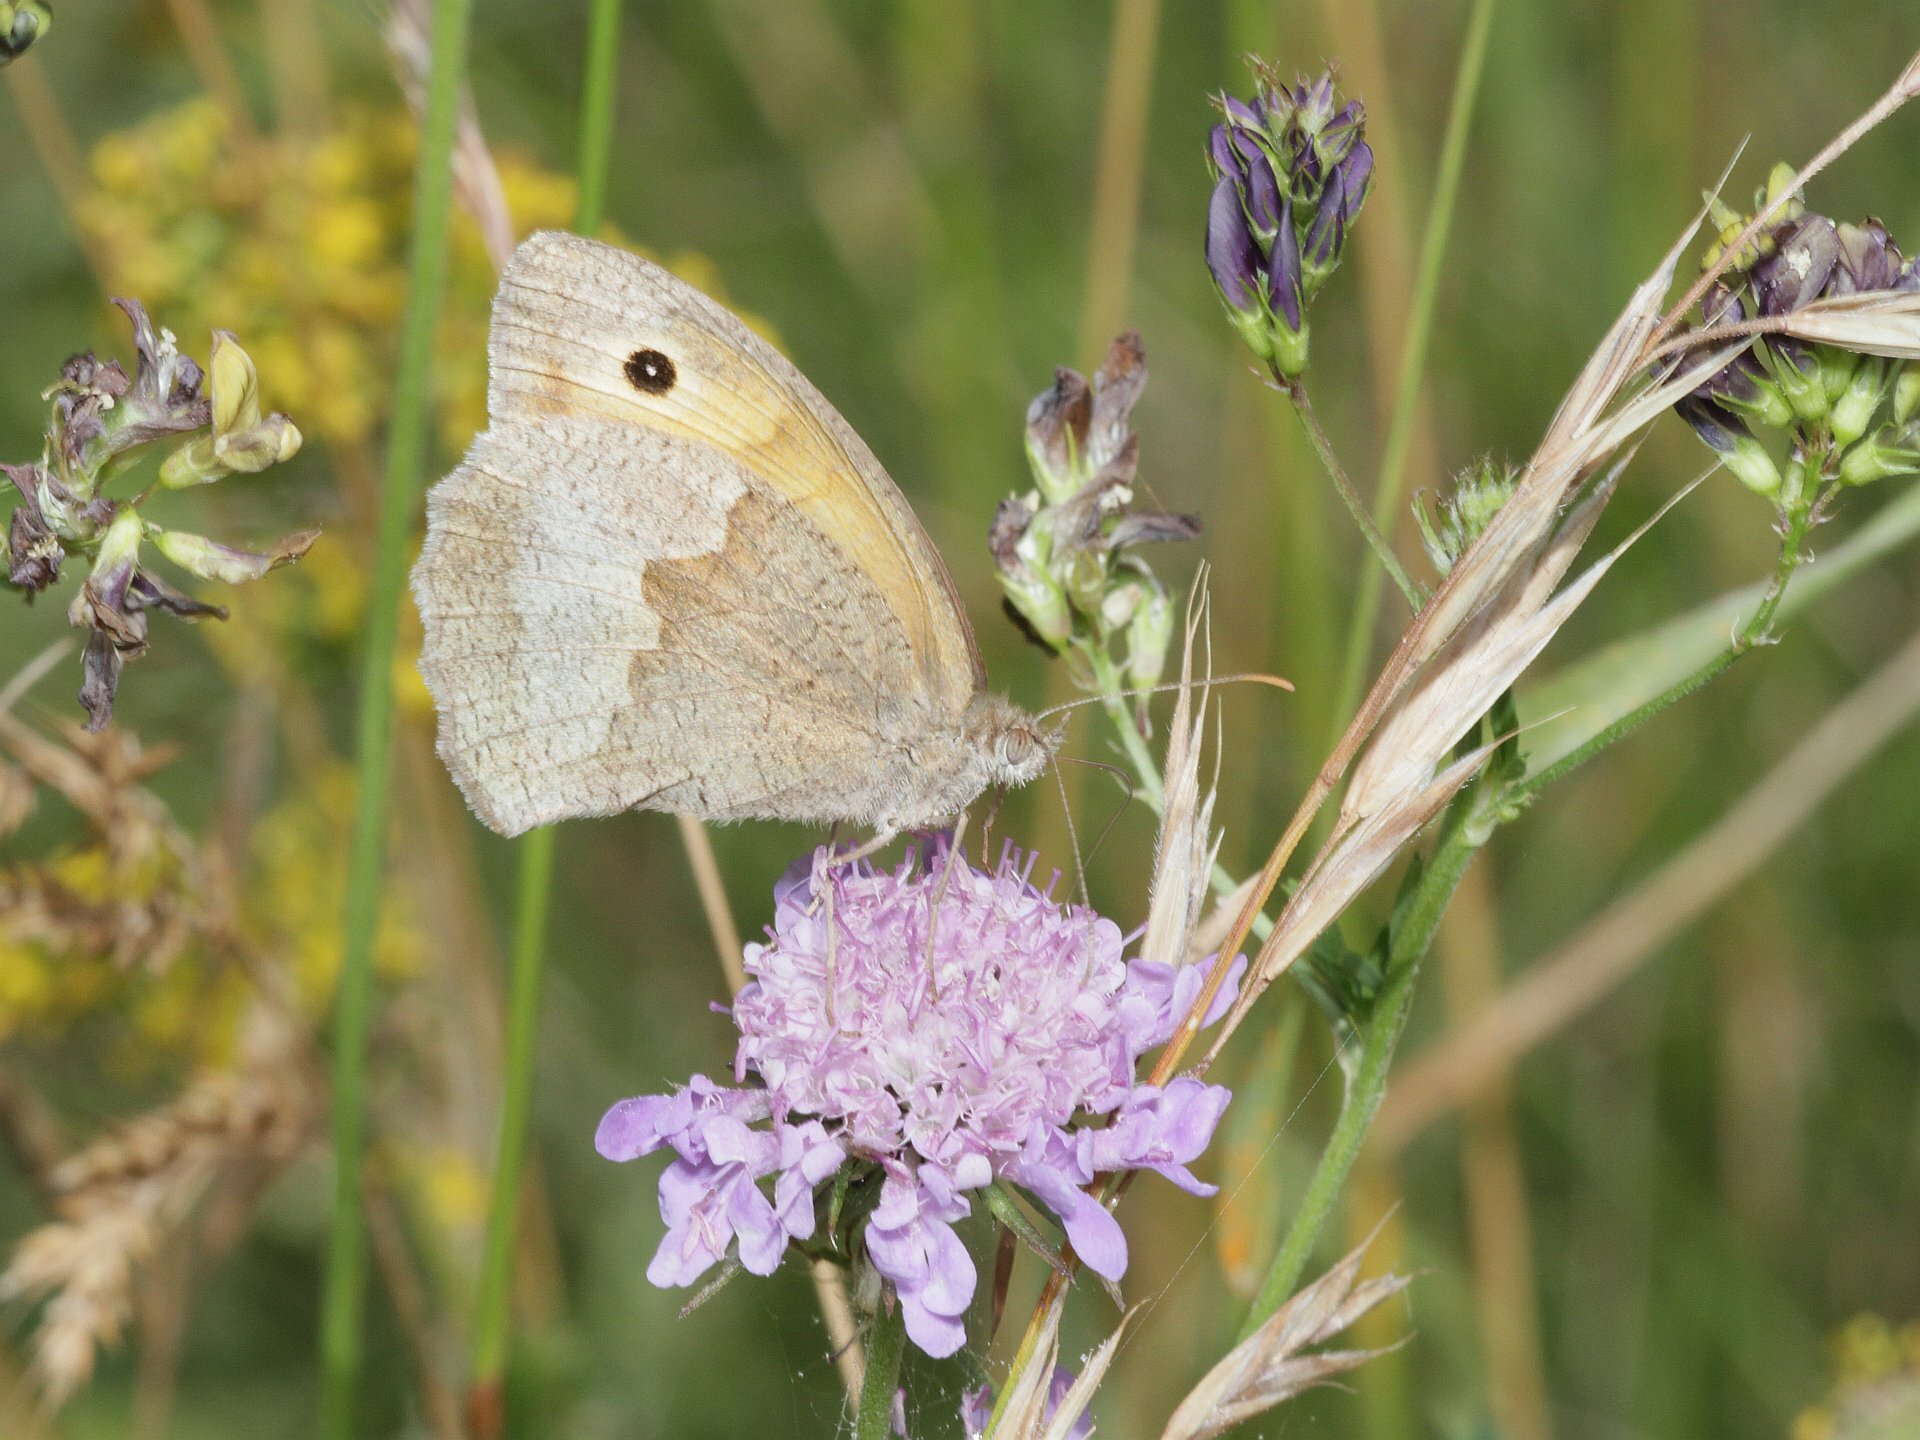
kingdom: Animalia
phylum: Arthropoda
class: Insecta
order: Lepidoptera
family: Nymphalidae
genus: Maniola
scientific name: Maniola jurtina
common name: Meadow brown
